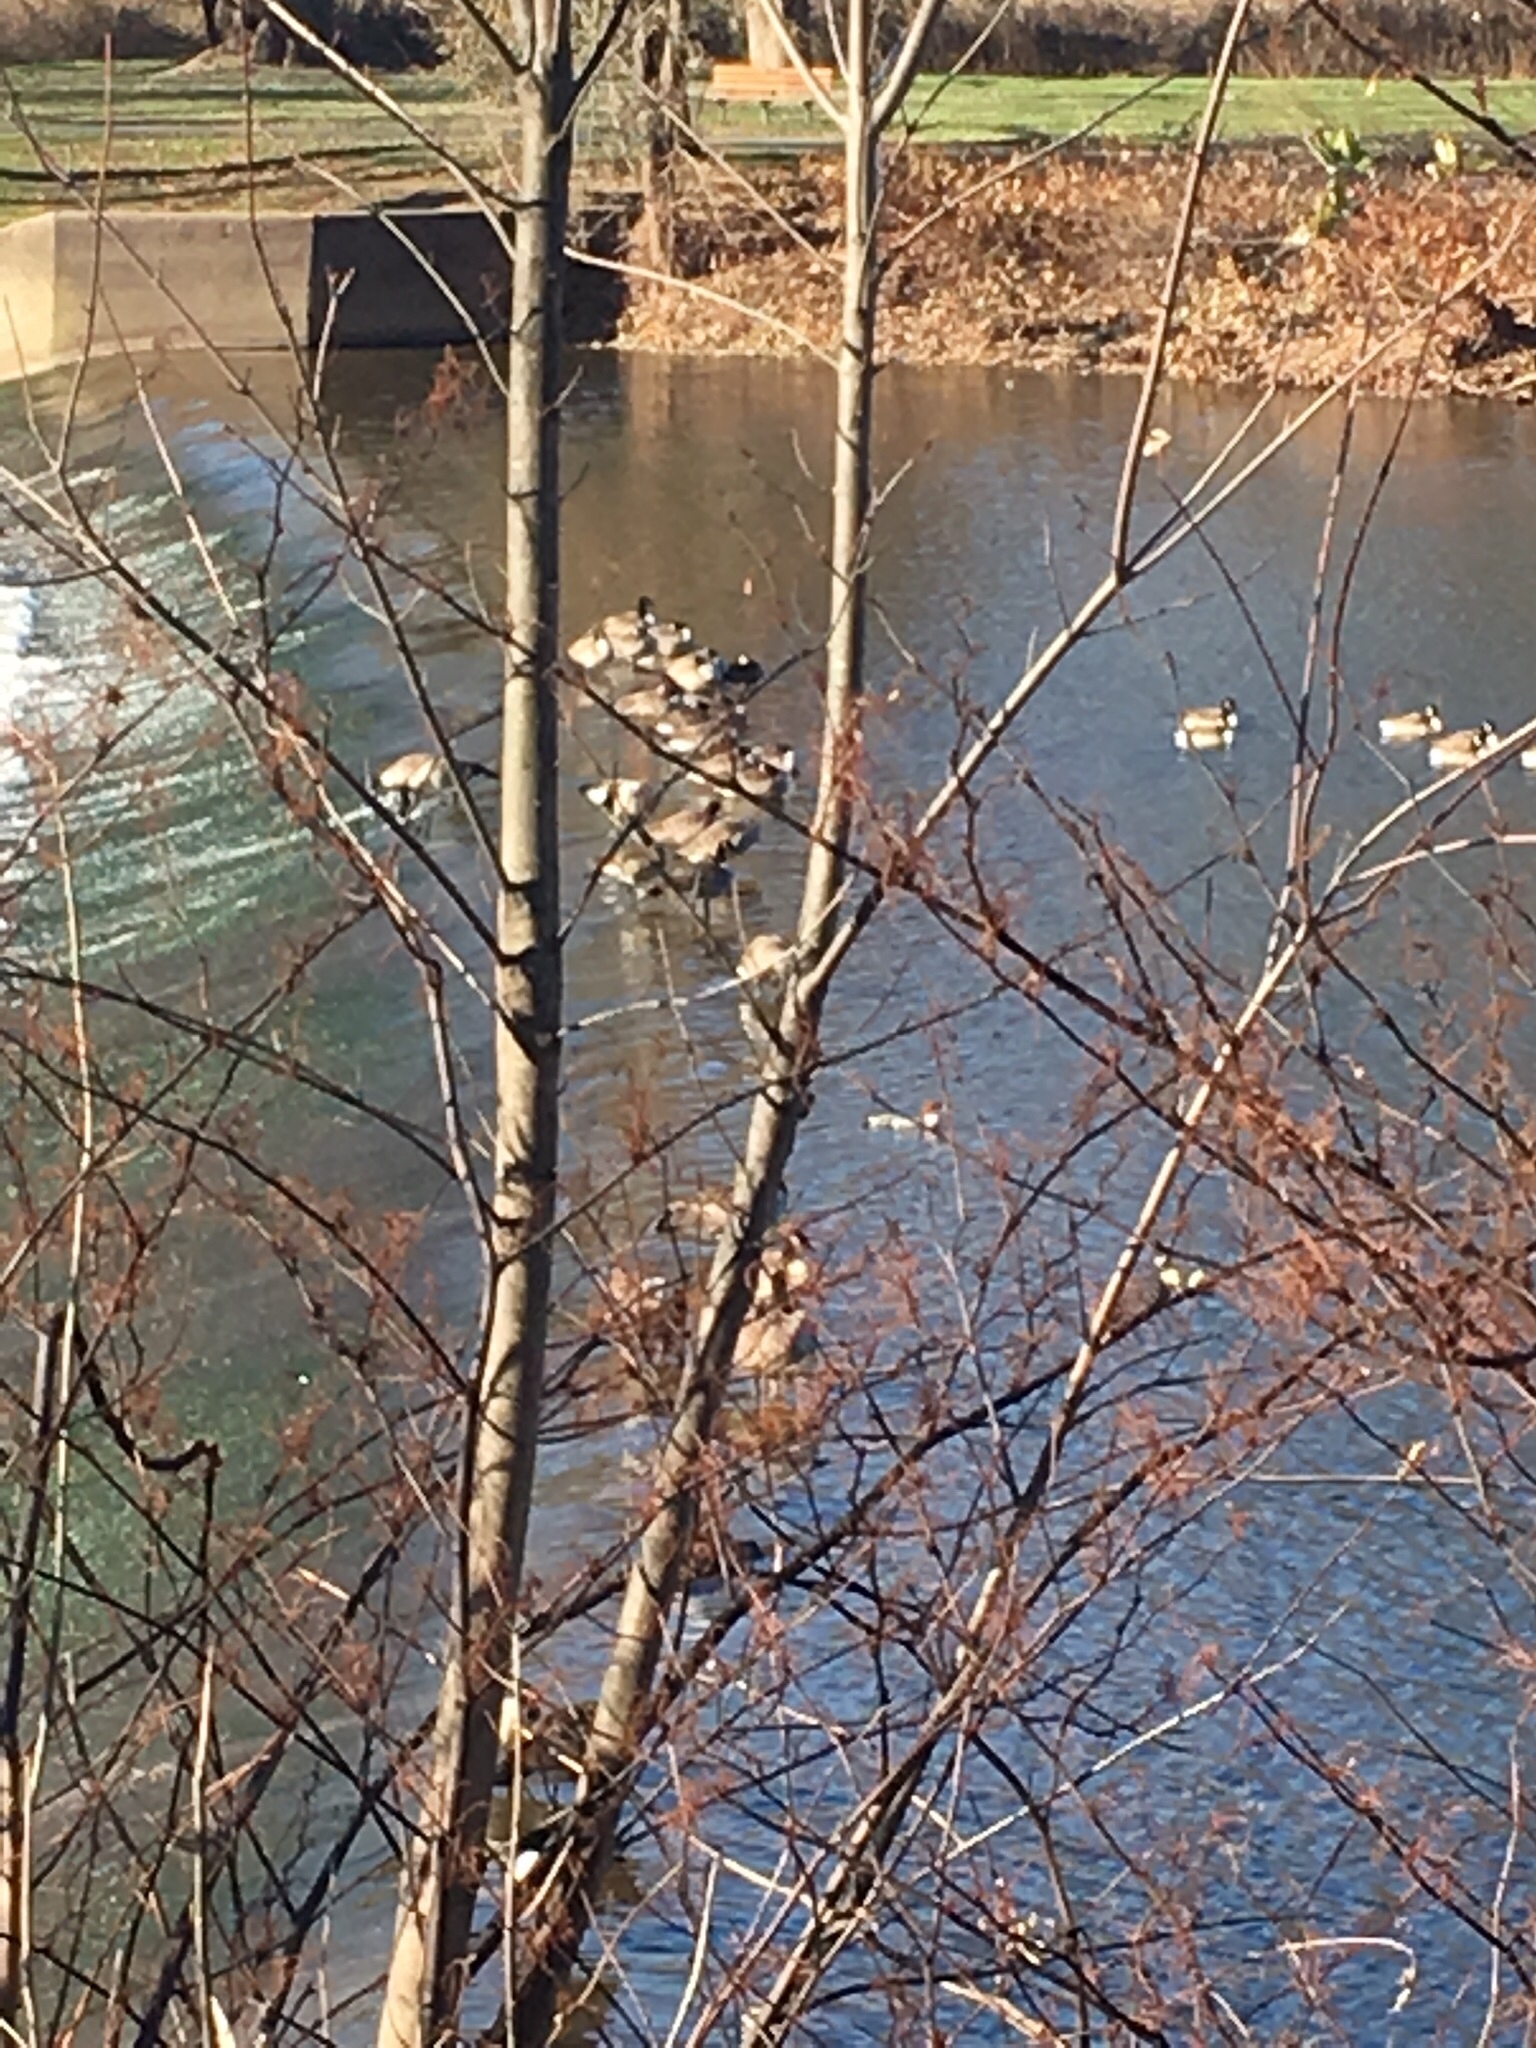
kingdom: Animalia
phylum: Chordata
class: Aves
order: Anseriformes
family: Anatidae
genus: Mergus
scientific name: Mergus merganser
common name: Common merganser
